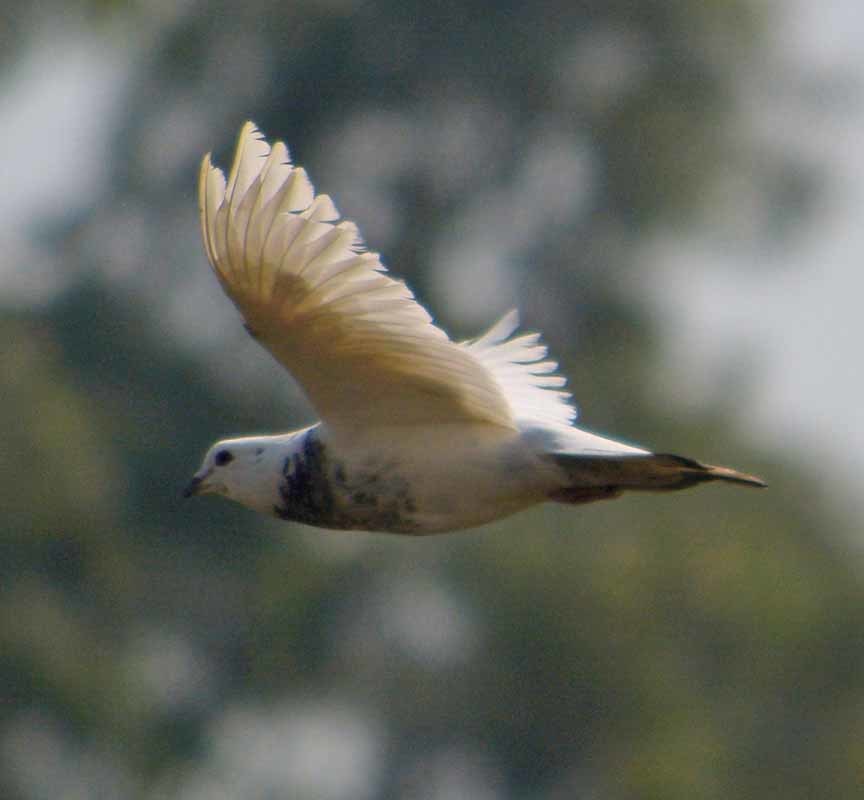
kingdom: Animalia
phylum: Chordata
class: Aves
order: Columbiformes
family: Columbidae
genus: Columba
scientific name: Columba livia
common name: Rock pigeon
